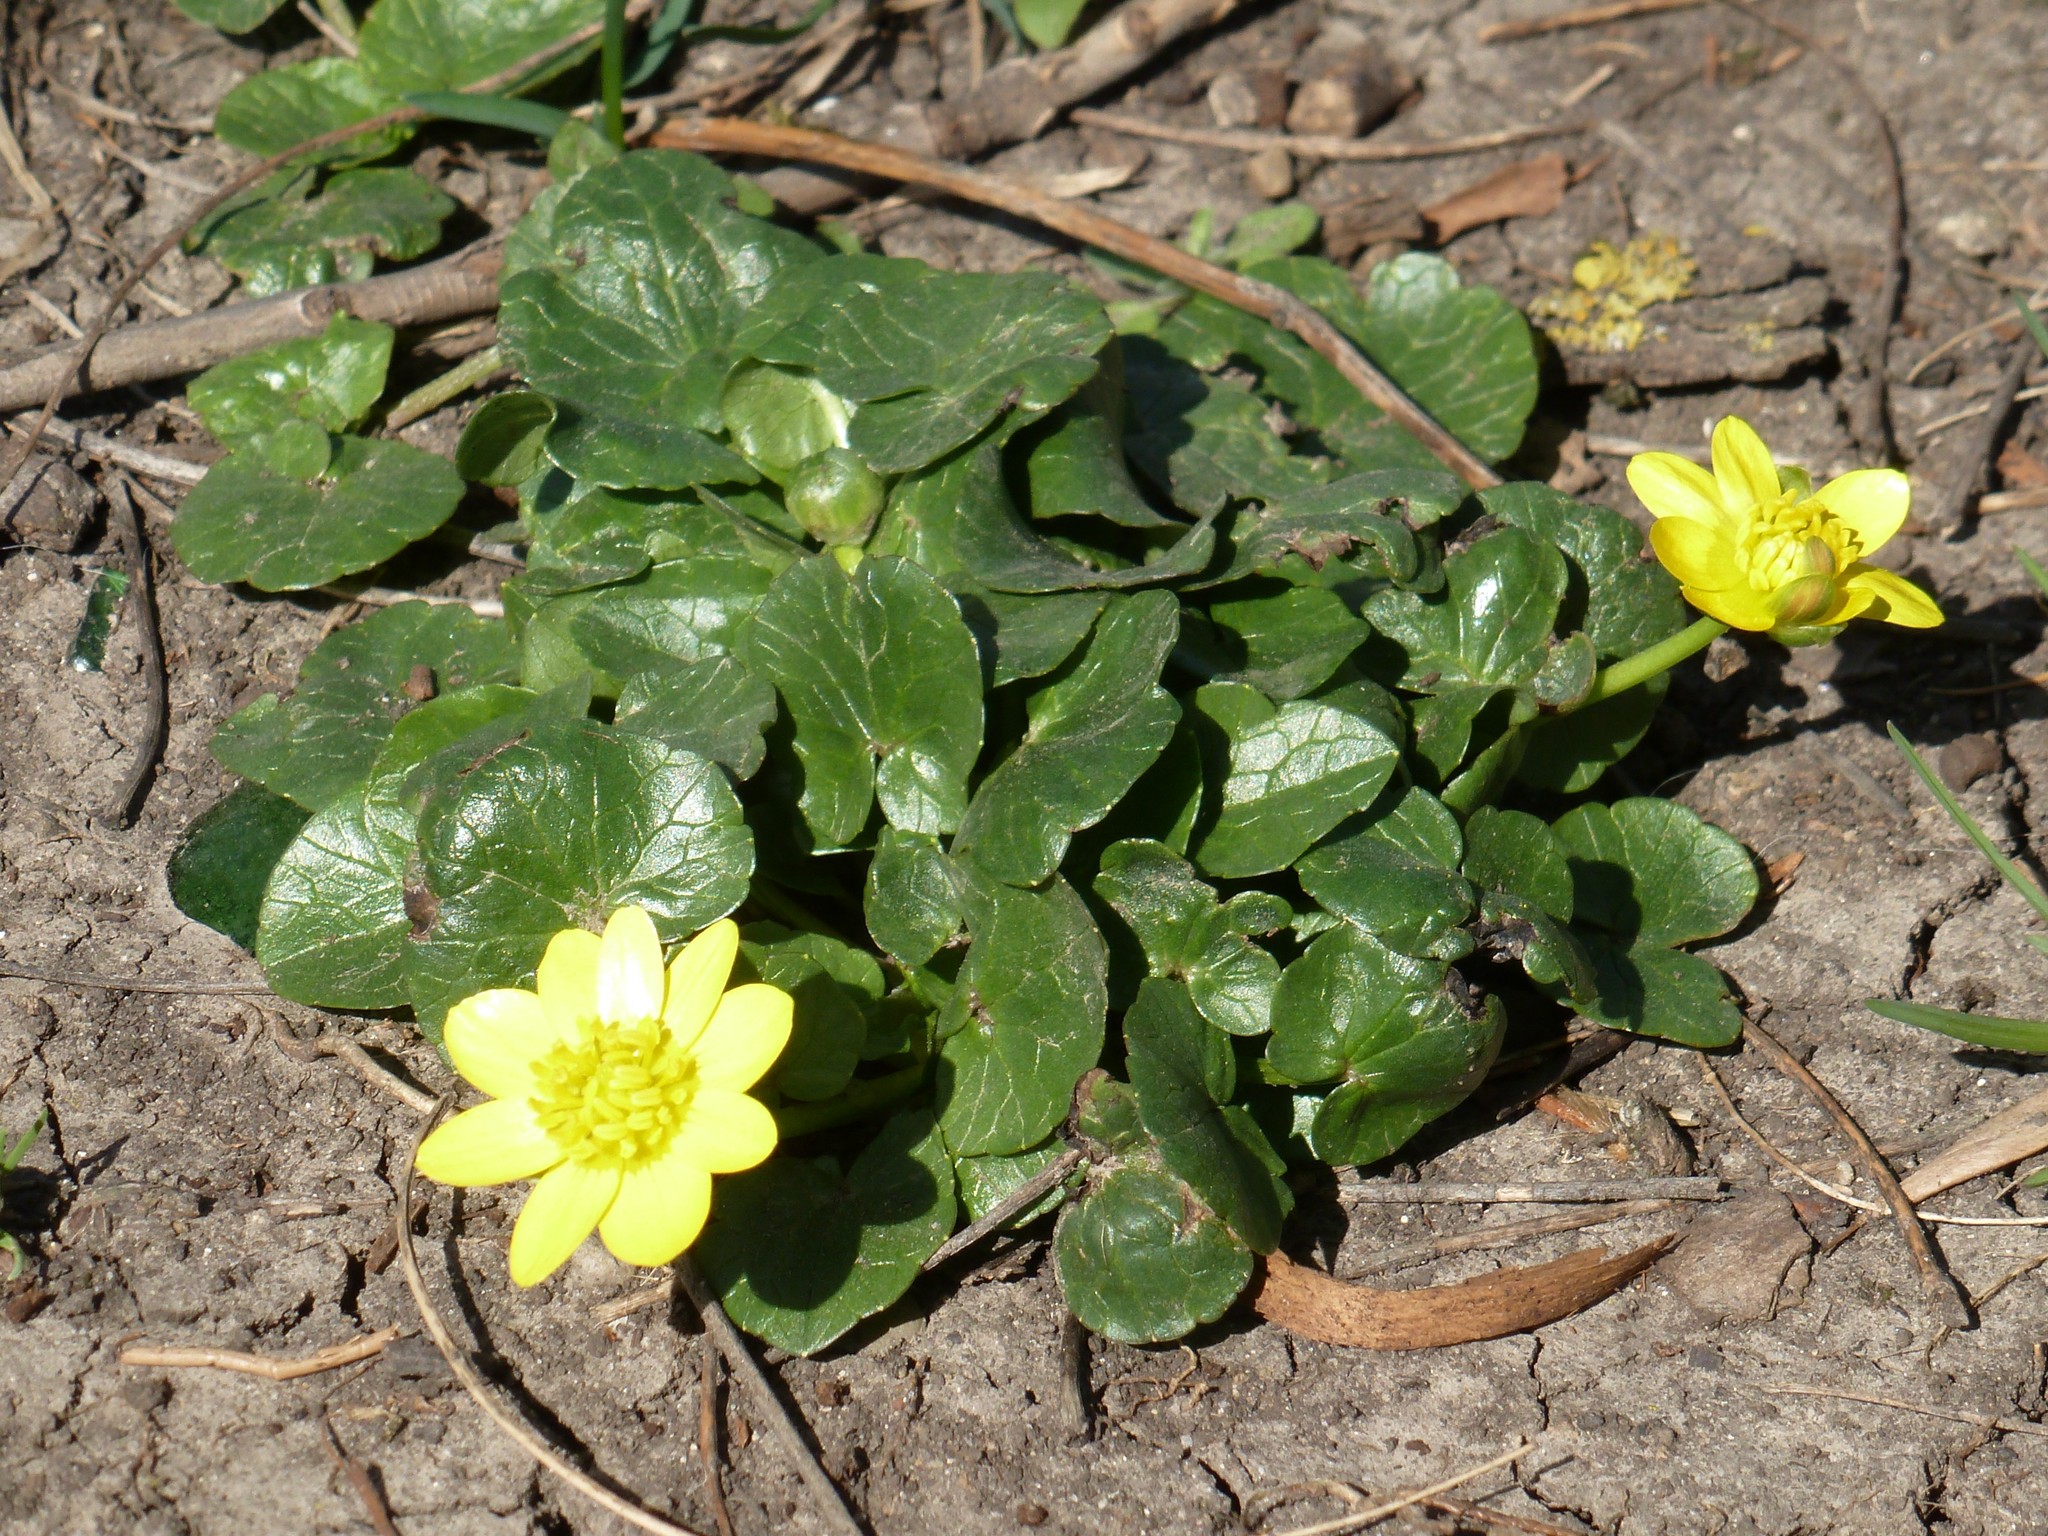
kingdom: Plantae
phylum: Tracheophyta
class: Magnoliopsida
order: Ranunculales
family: Ranunculaceae
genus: Ficaria
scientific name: Ficaria verna
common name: Lesser celandine
